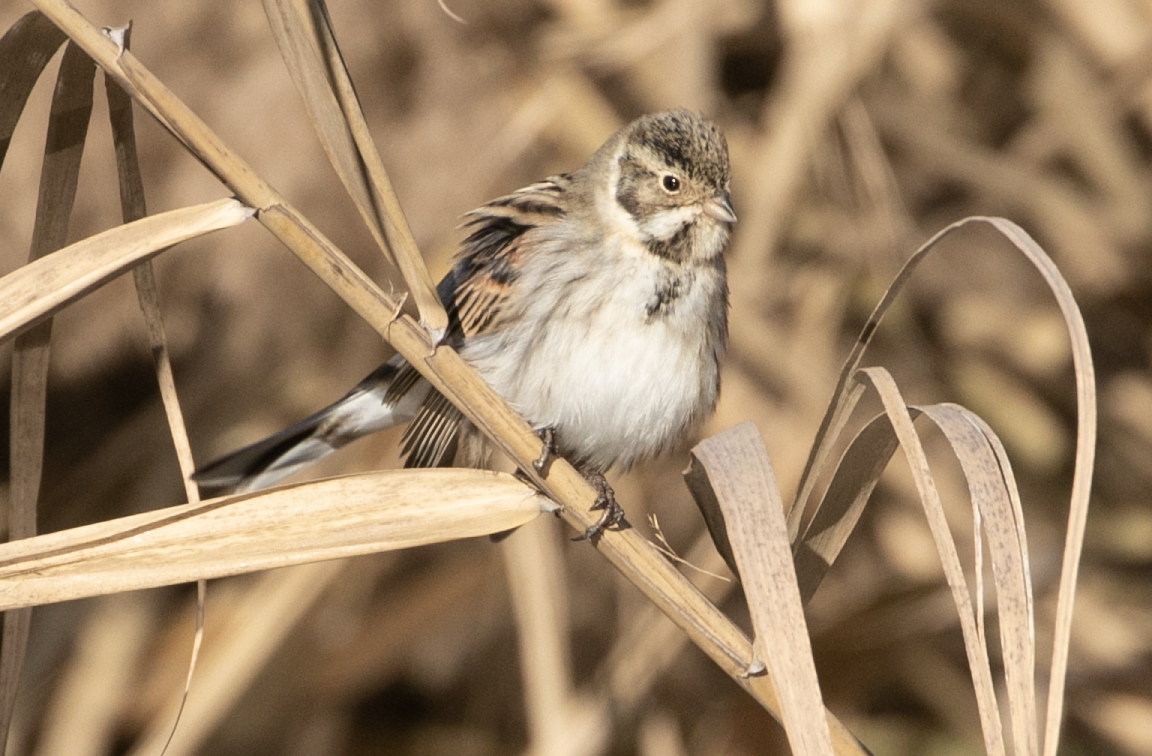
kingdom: Animalia
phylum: Chordata
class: Aves
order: Passeriformes
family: Emberizidae
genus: Emberiza
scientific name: Emberiza schoeniclus
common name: Reed bunting
